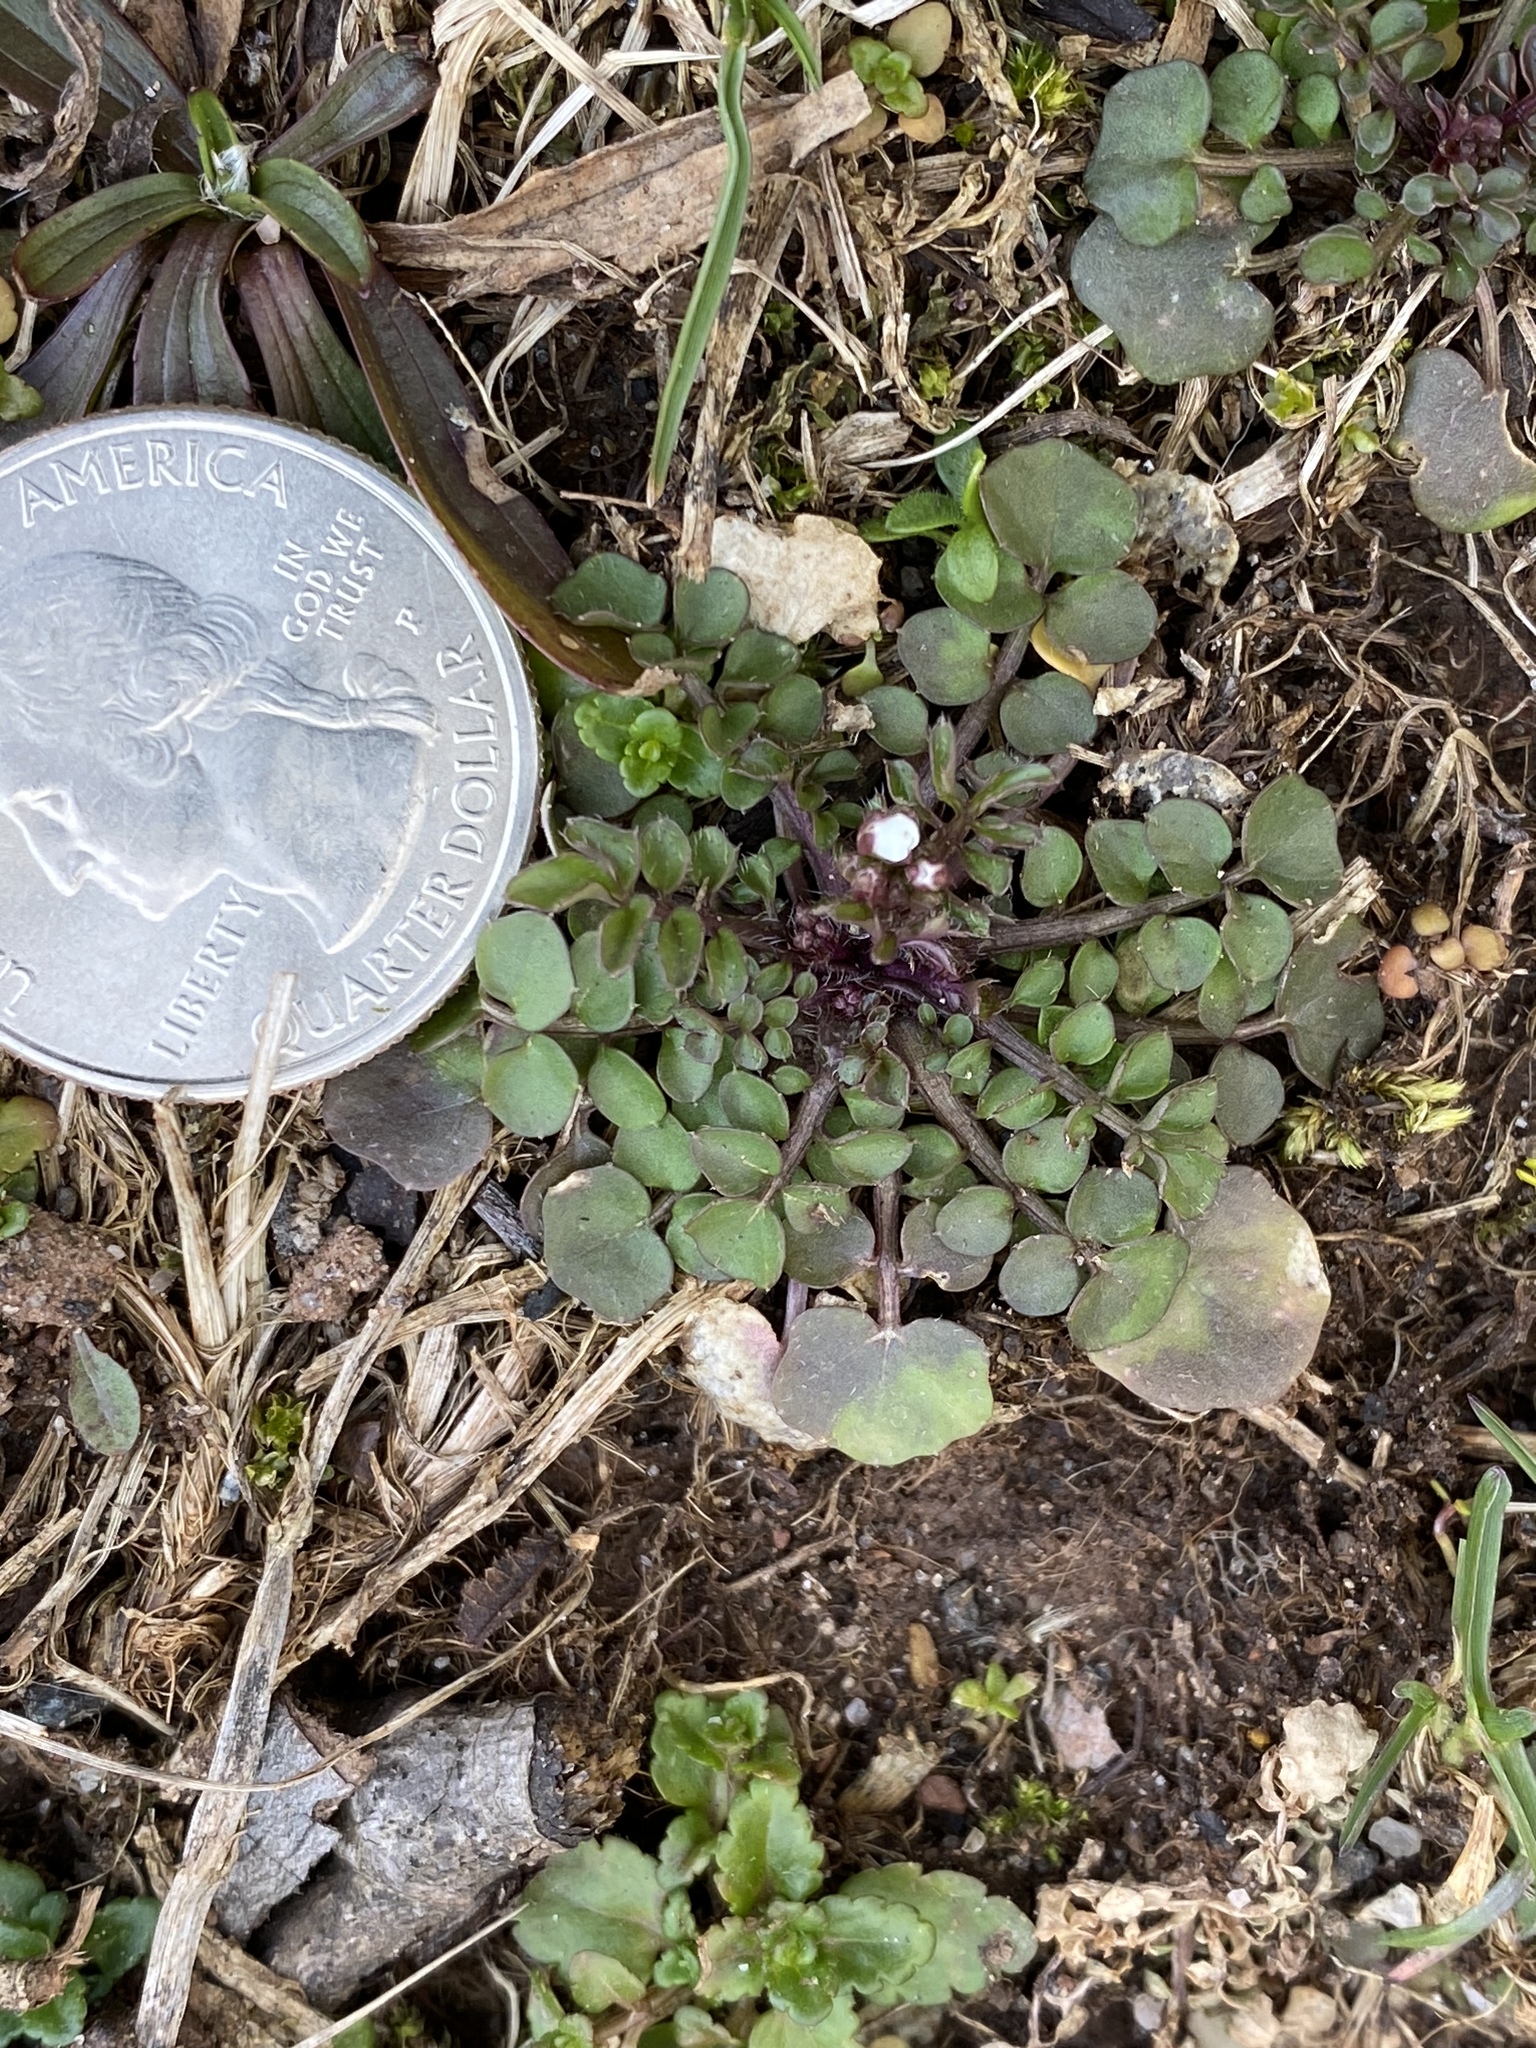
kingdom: Plantae
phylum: Tracheophyta
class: Magnoliopsida
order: Brassicales
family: Brassicaceae
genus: Cardamine
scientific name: Cardamine hirsuta
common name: Hairy bittercress
